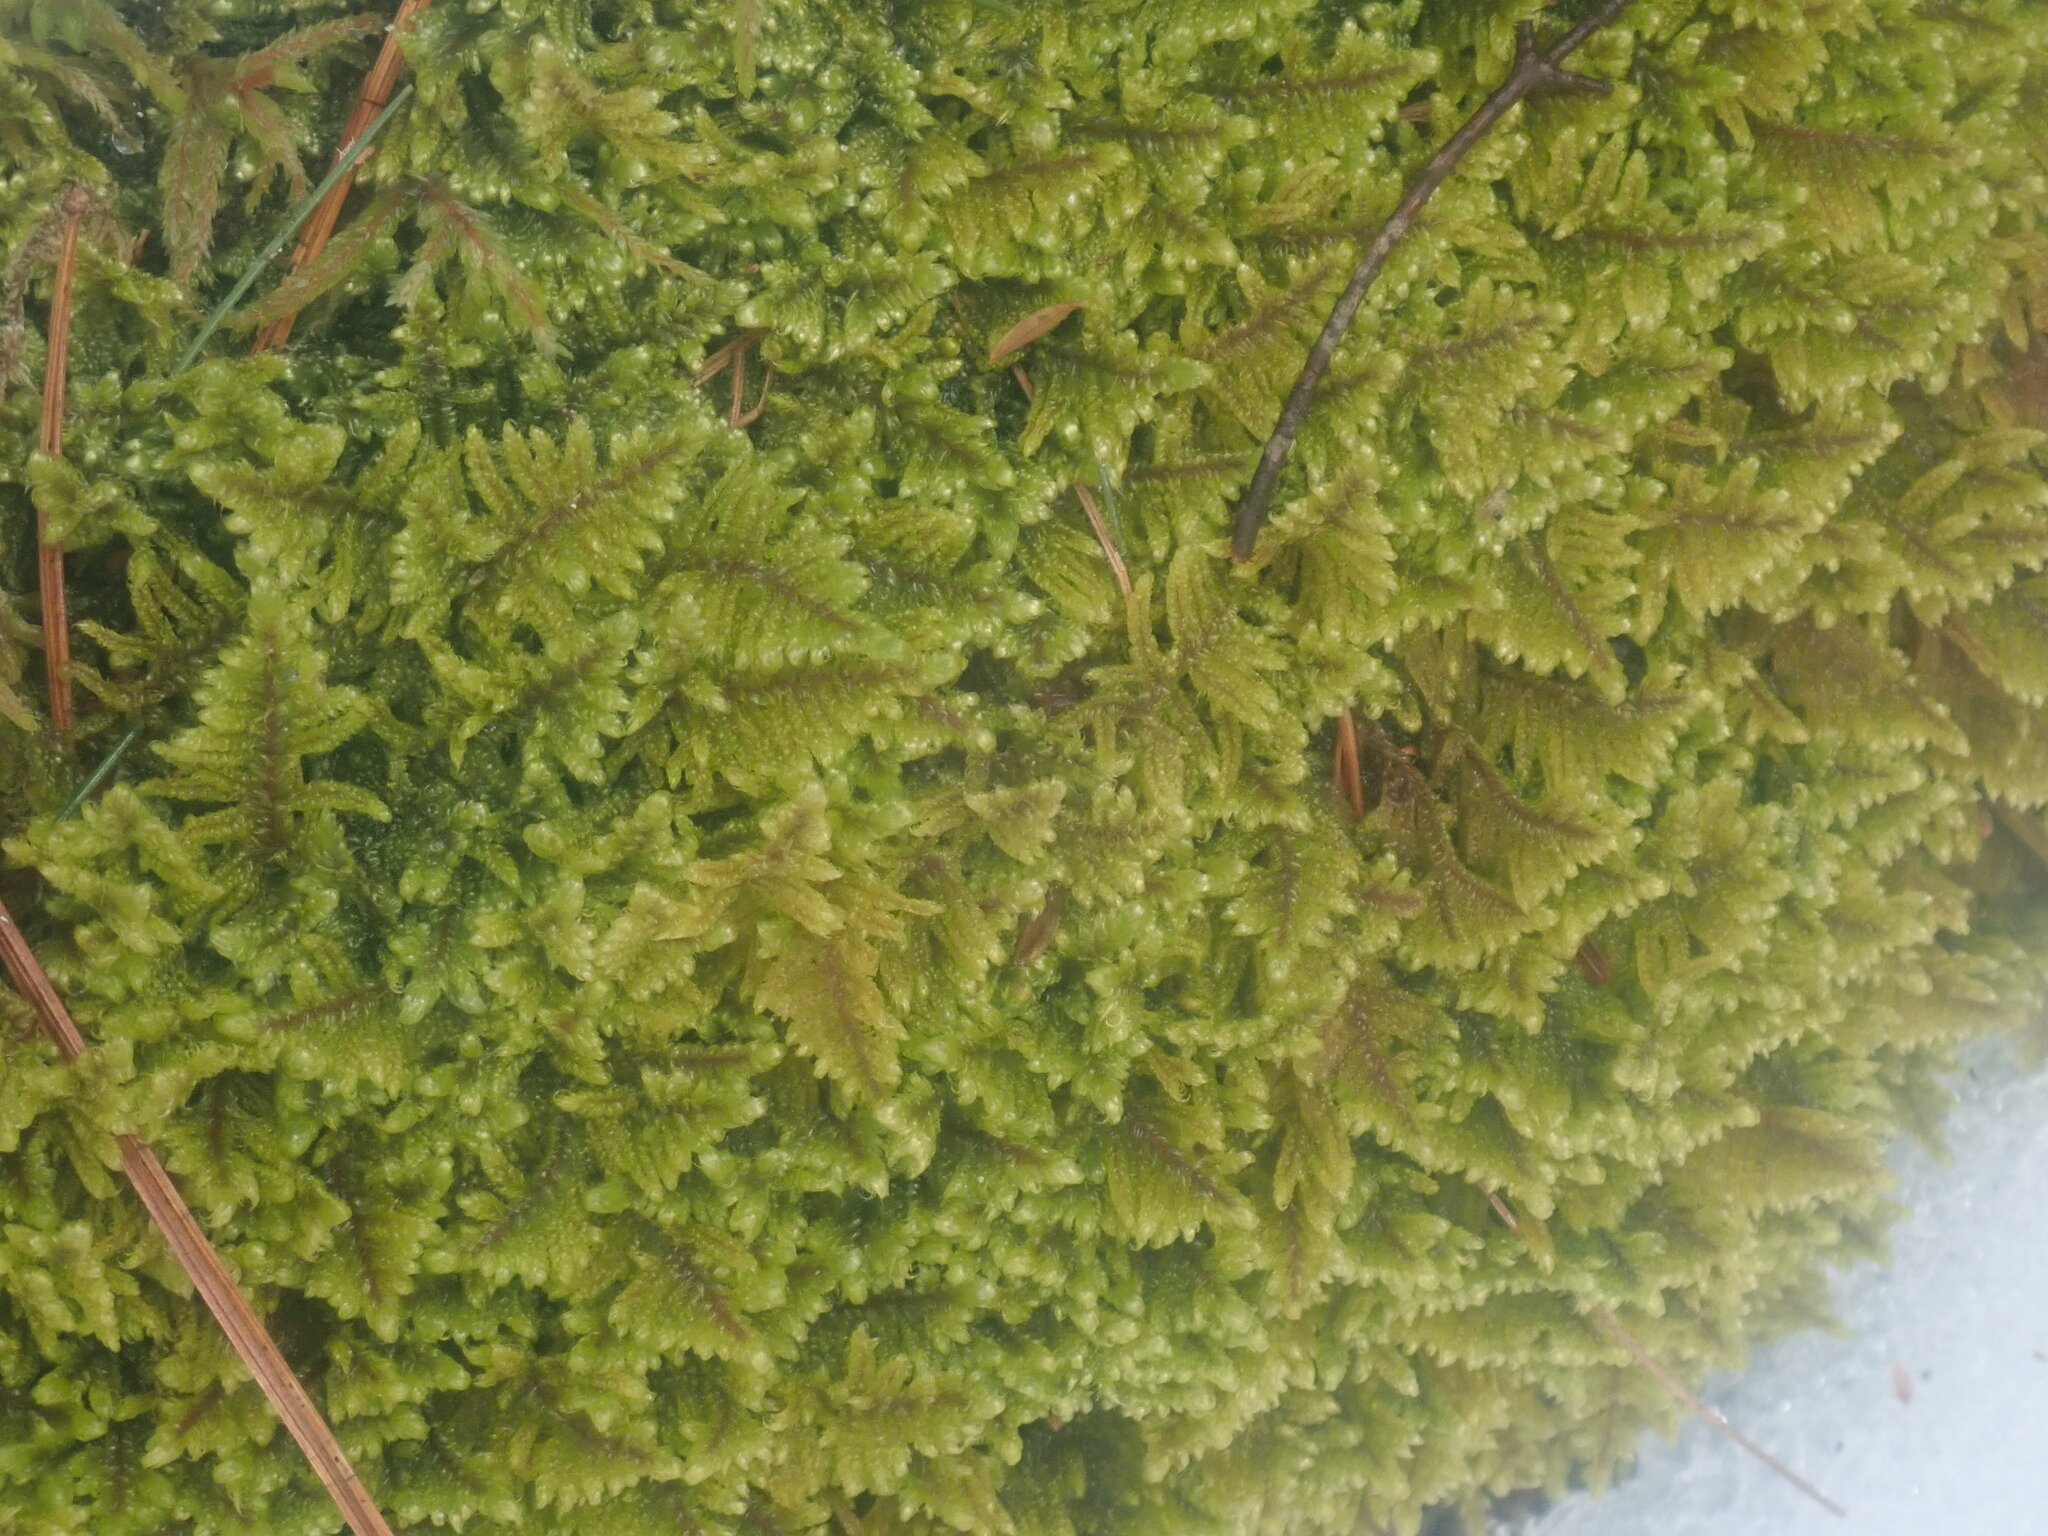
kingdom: Plantae
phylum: Bryophyta
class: Bryopsida
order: Hypnales
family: Callicladiaceae
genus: Callicladium
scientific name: Callicladium imponens
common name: Brocade moss
